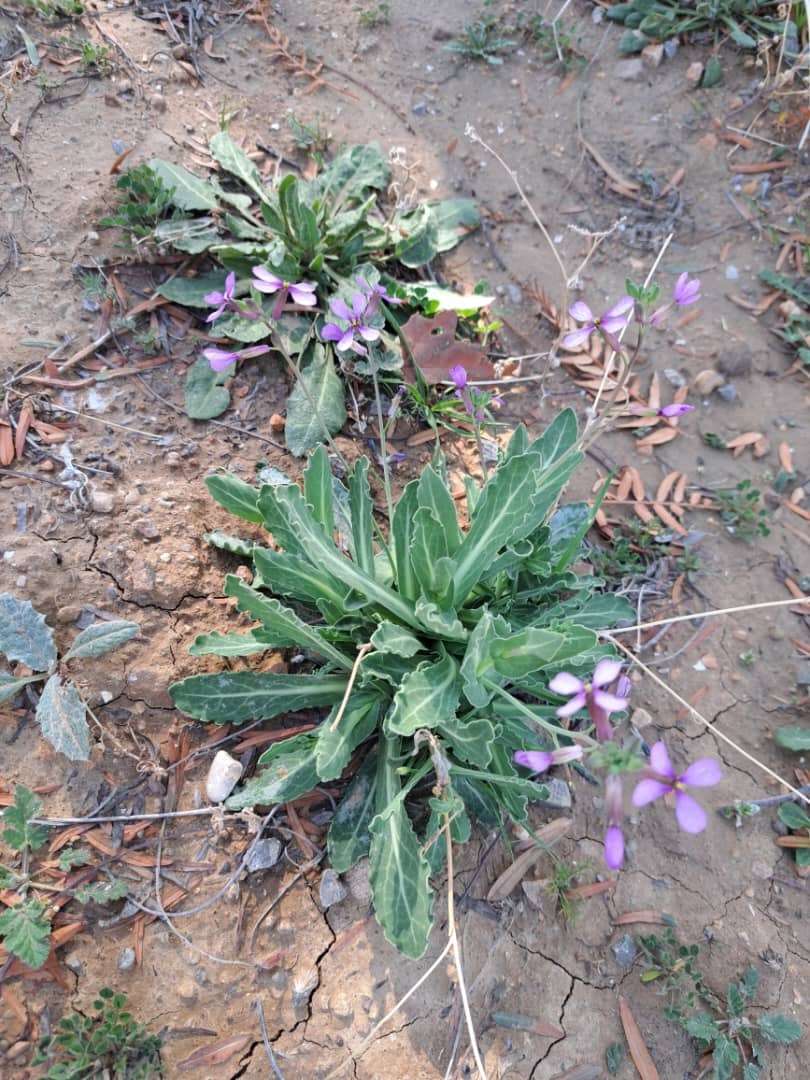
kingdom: Plantae
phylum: Tracheophyta
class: Magnoliopsida
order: Brassicales
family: Brassicaceae
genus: Moricandia
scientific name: Moricandia suffruticosa
